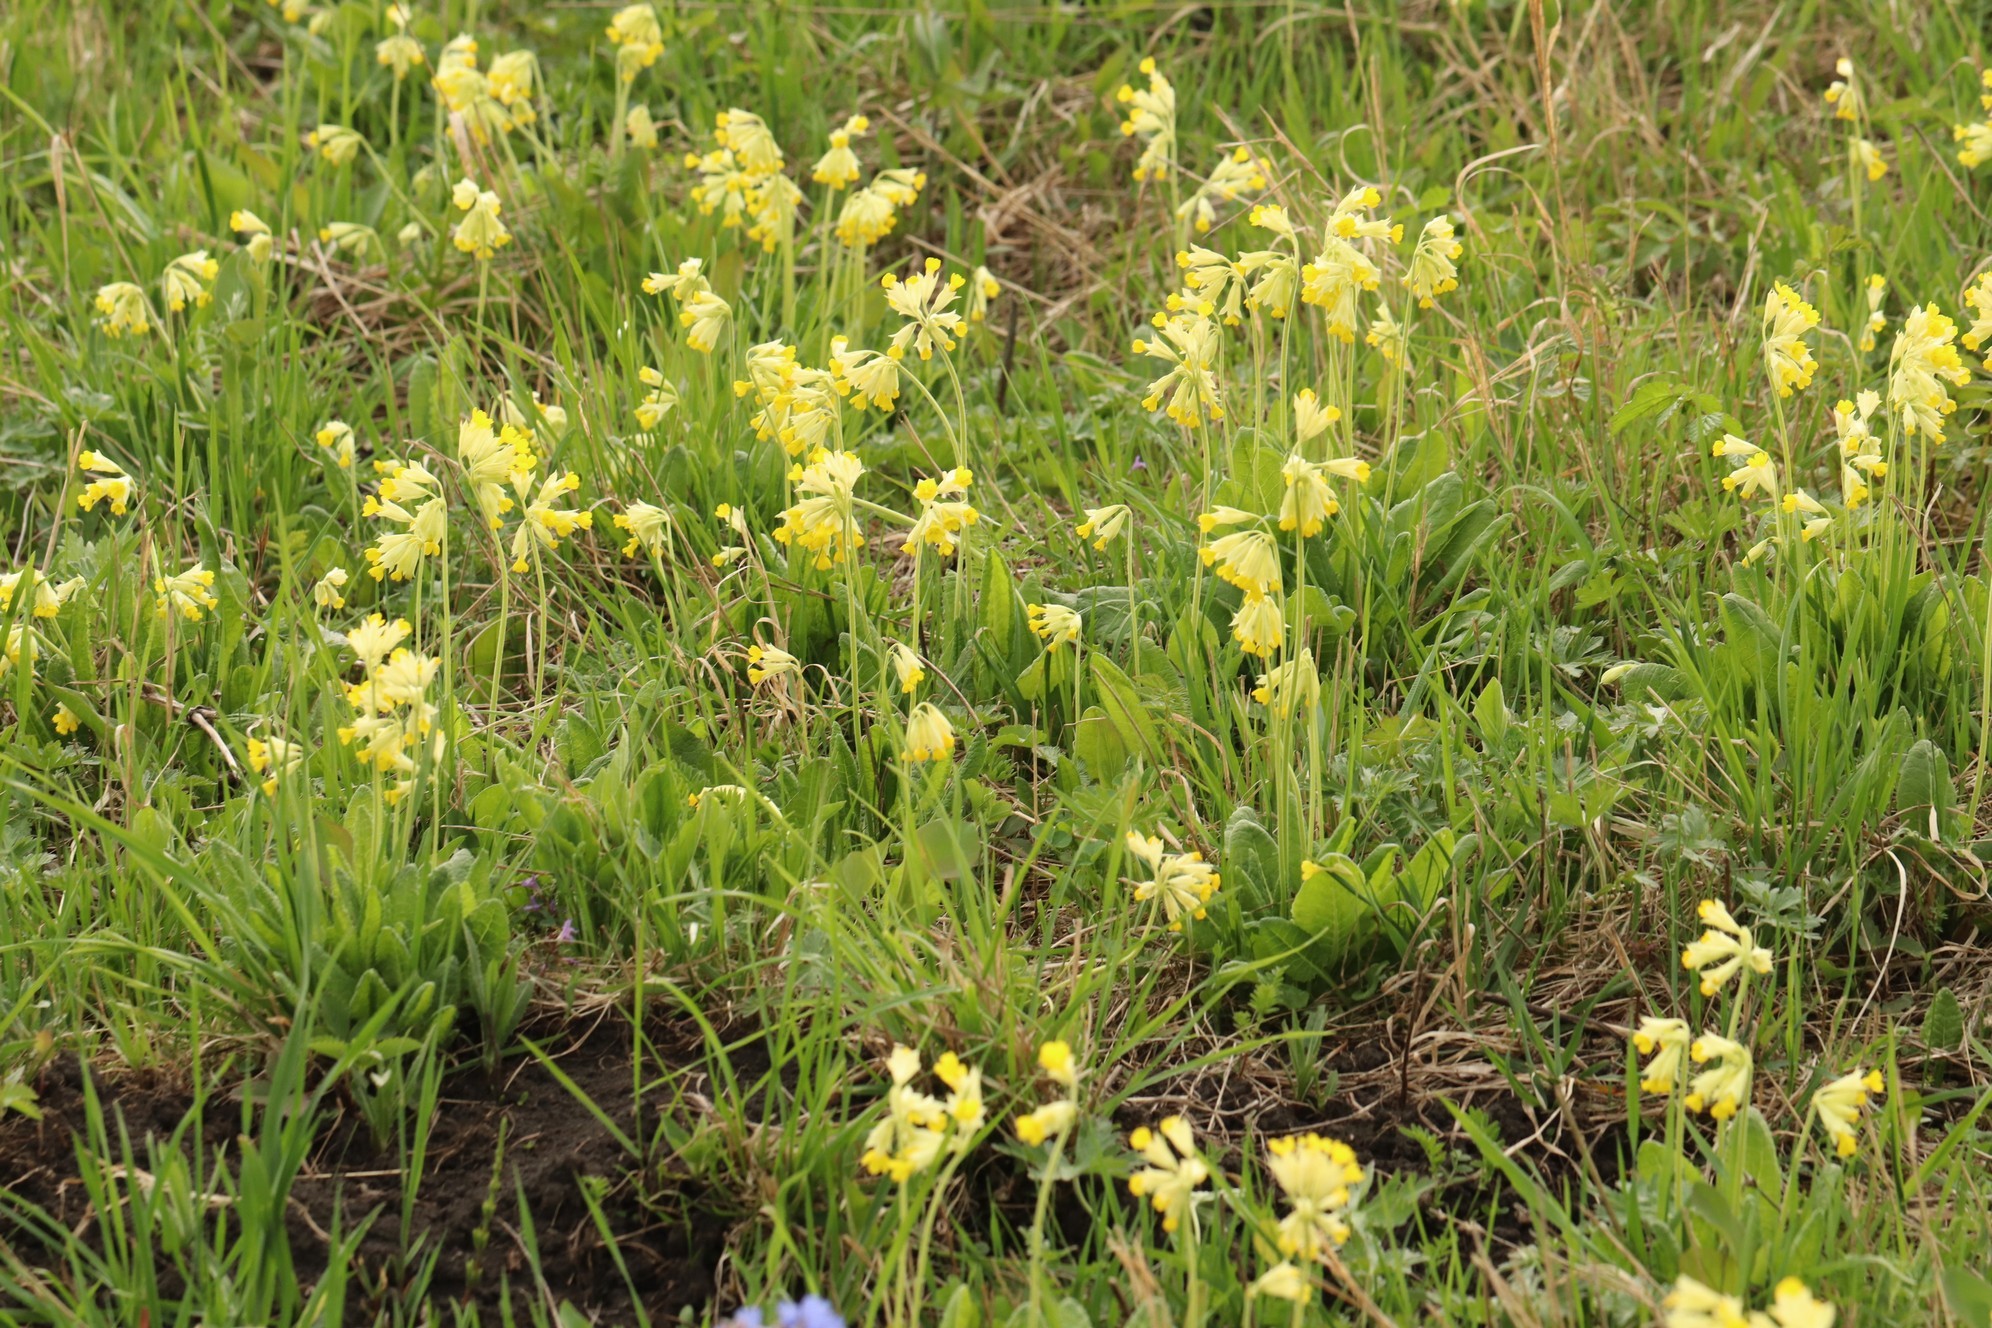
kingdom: Plantae
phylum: Tracheophyta
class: Magnoliopsida
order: Ericales
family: Primulaceae
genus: Primula
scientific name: Primula veris
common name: Cowslip
